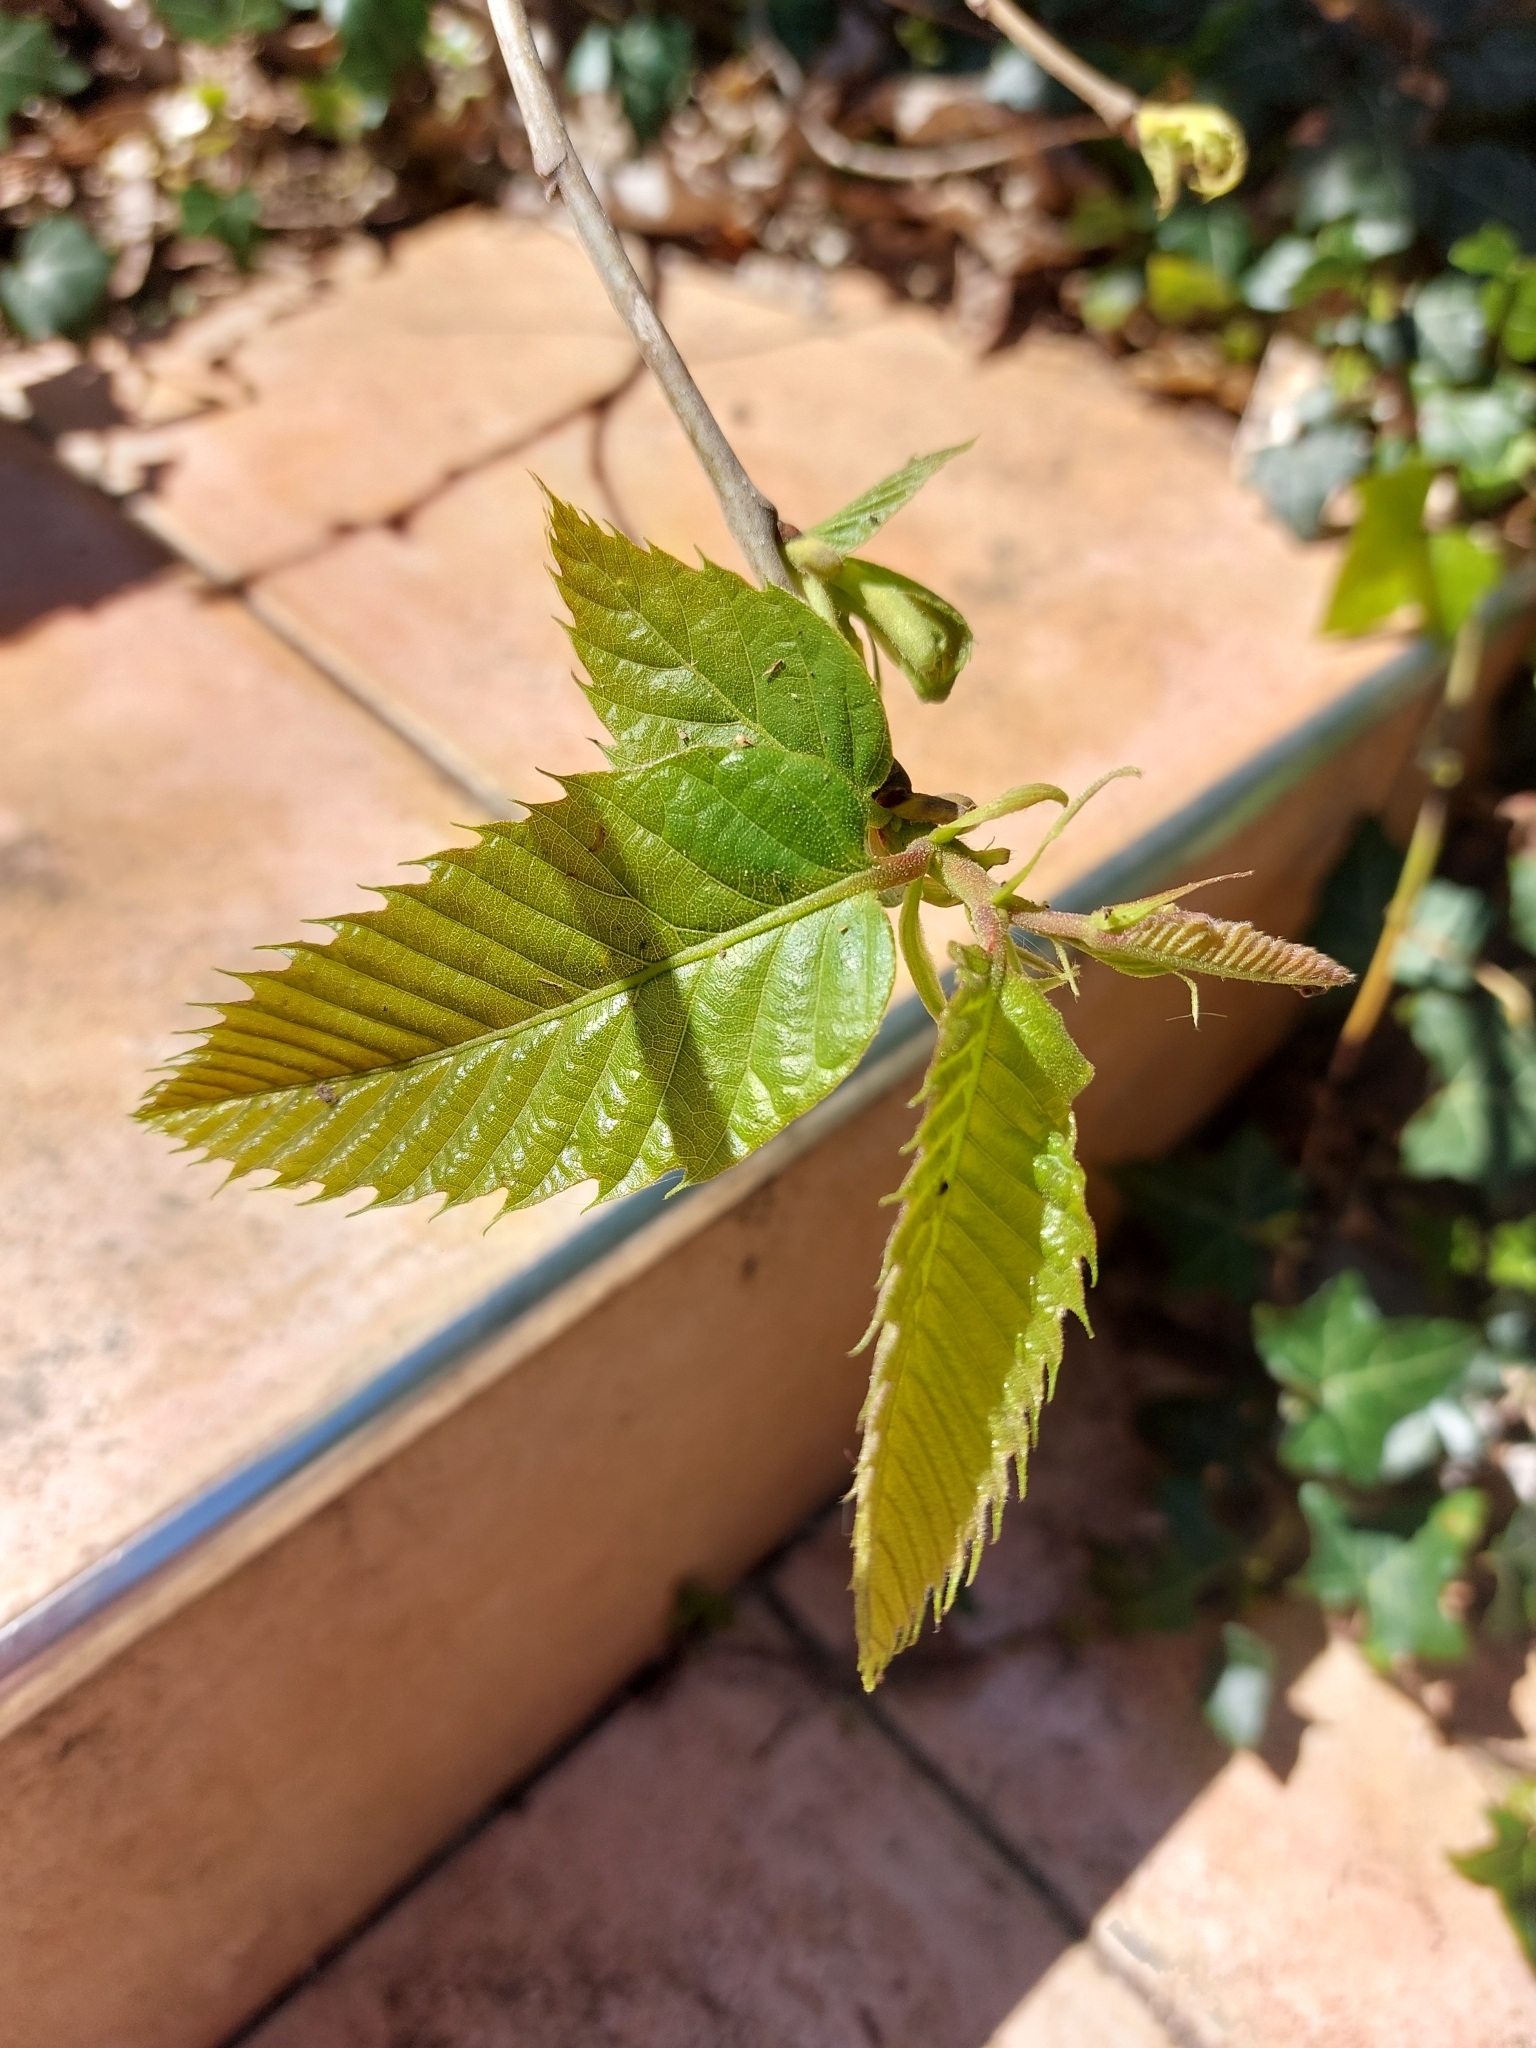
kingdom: Plantae
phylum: Tracheophyta
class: Magnoliopsida
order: Fagales
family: Fagaceae
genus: Castanea
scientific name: Castanea sativa
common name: Sweet chestnut
